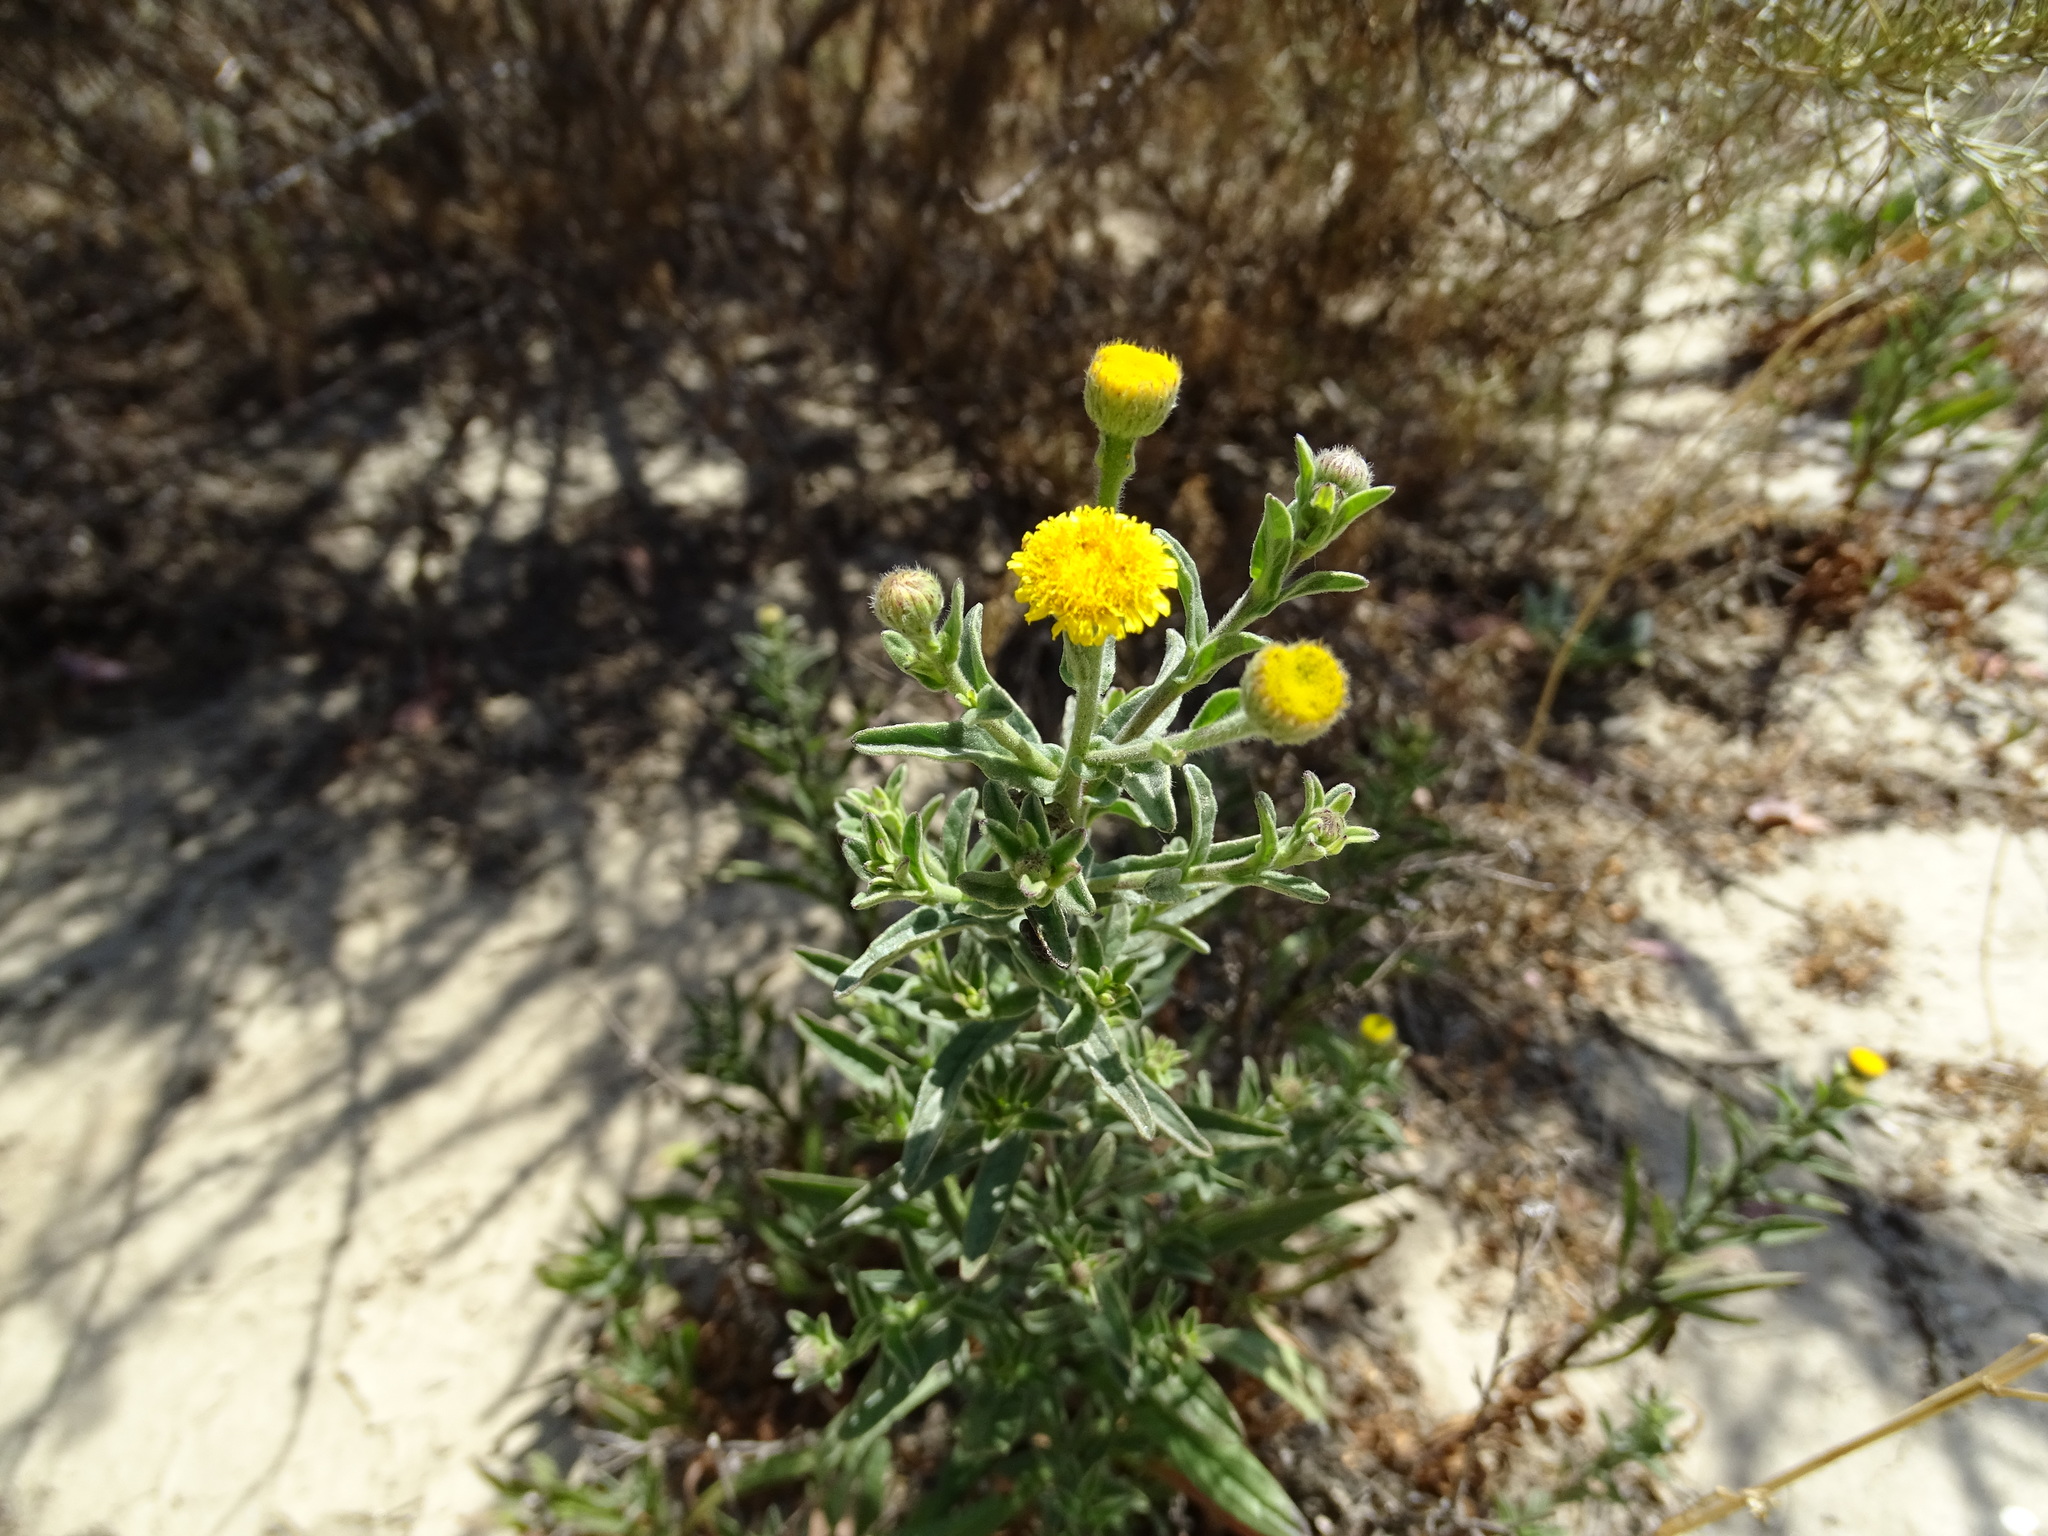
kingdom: Plantae
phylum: Tracheophyta
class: Magnoliopsida
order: Asterales
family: Asteraceae
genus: Pulicaria
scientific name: Pulicaria paludosa
